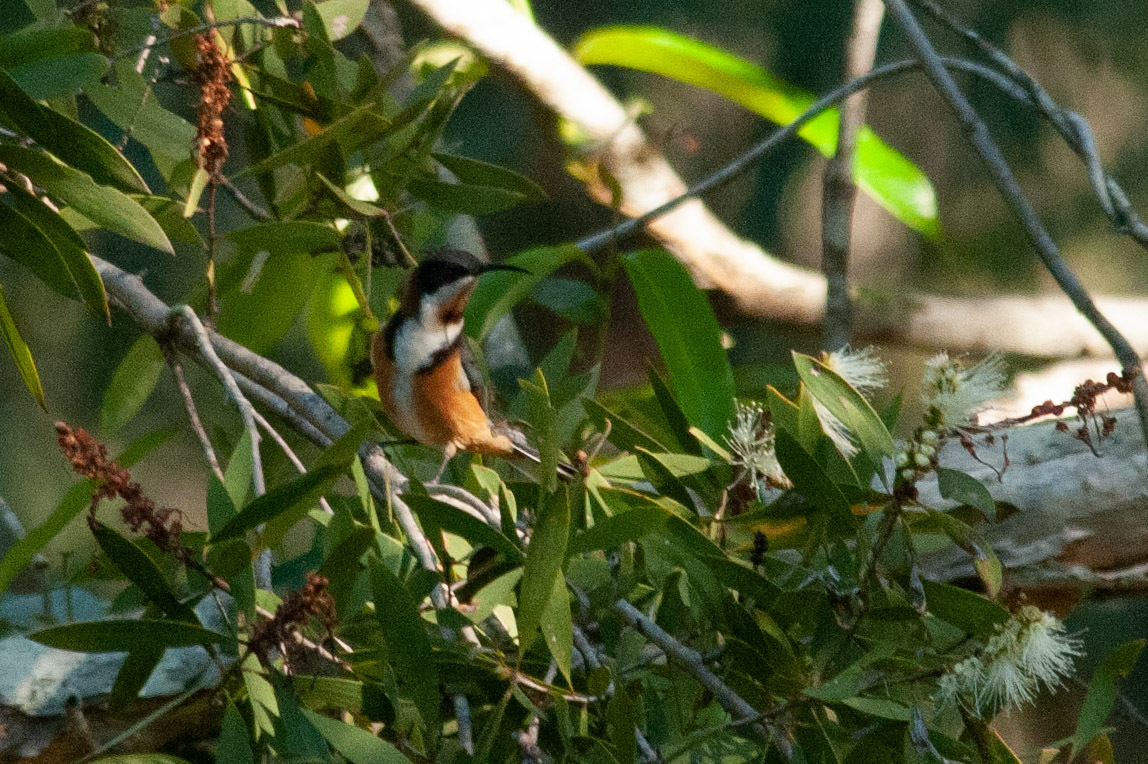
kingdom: Animalia
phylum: Chordata
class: Aves
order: Passeriformes
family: Meliphagidae
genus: Acanthorhynchus
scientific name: Acanthorhynchus tenuirostris
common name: Eastern spinebill
